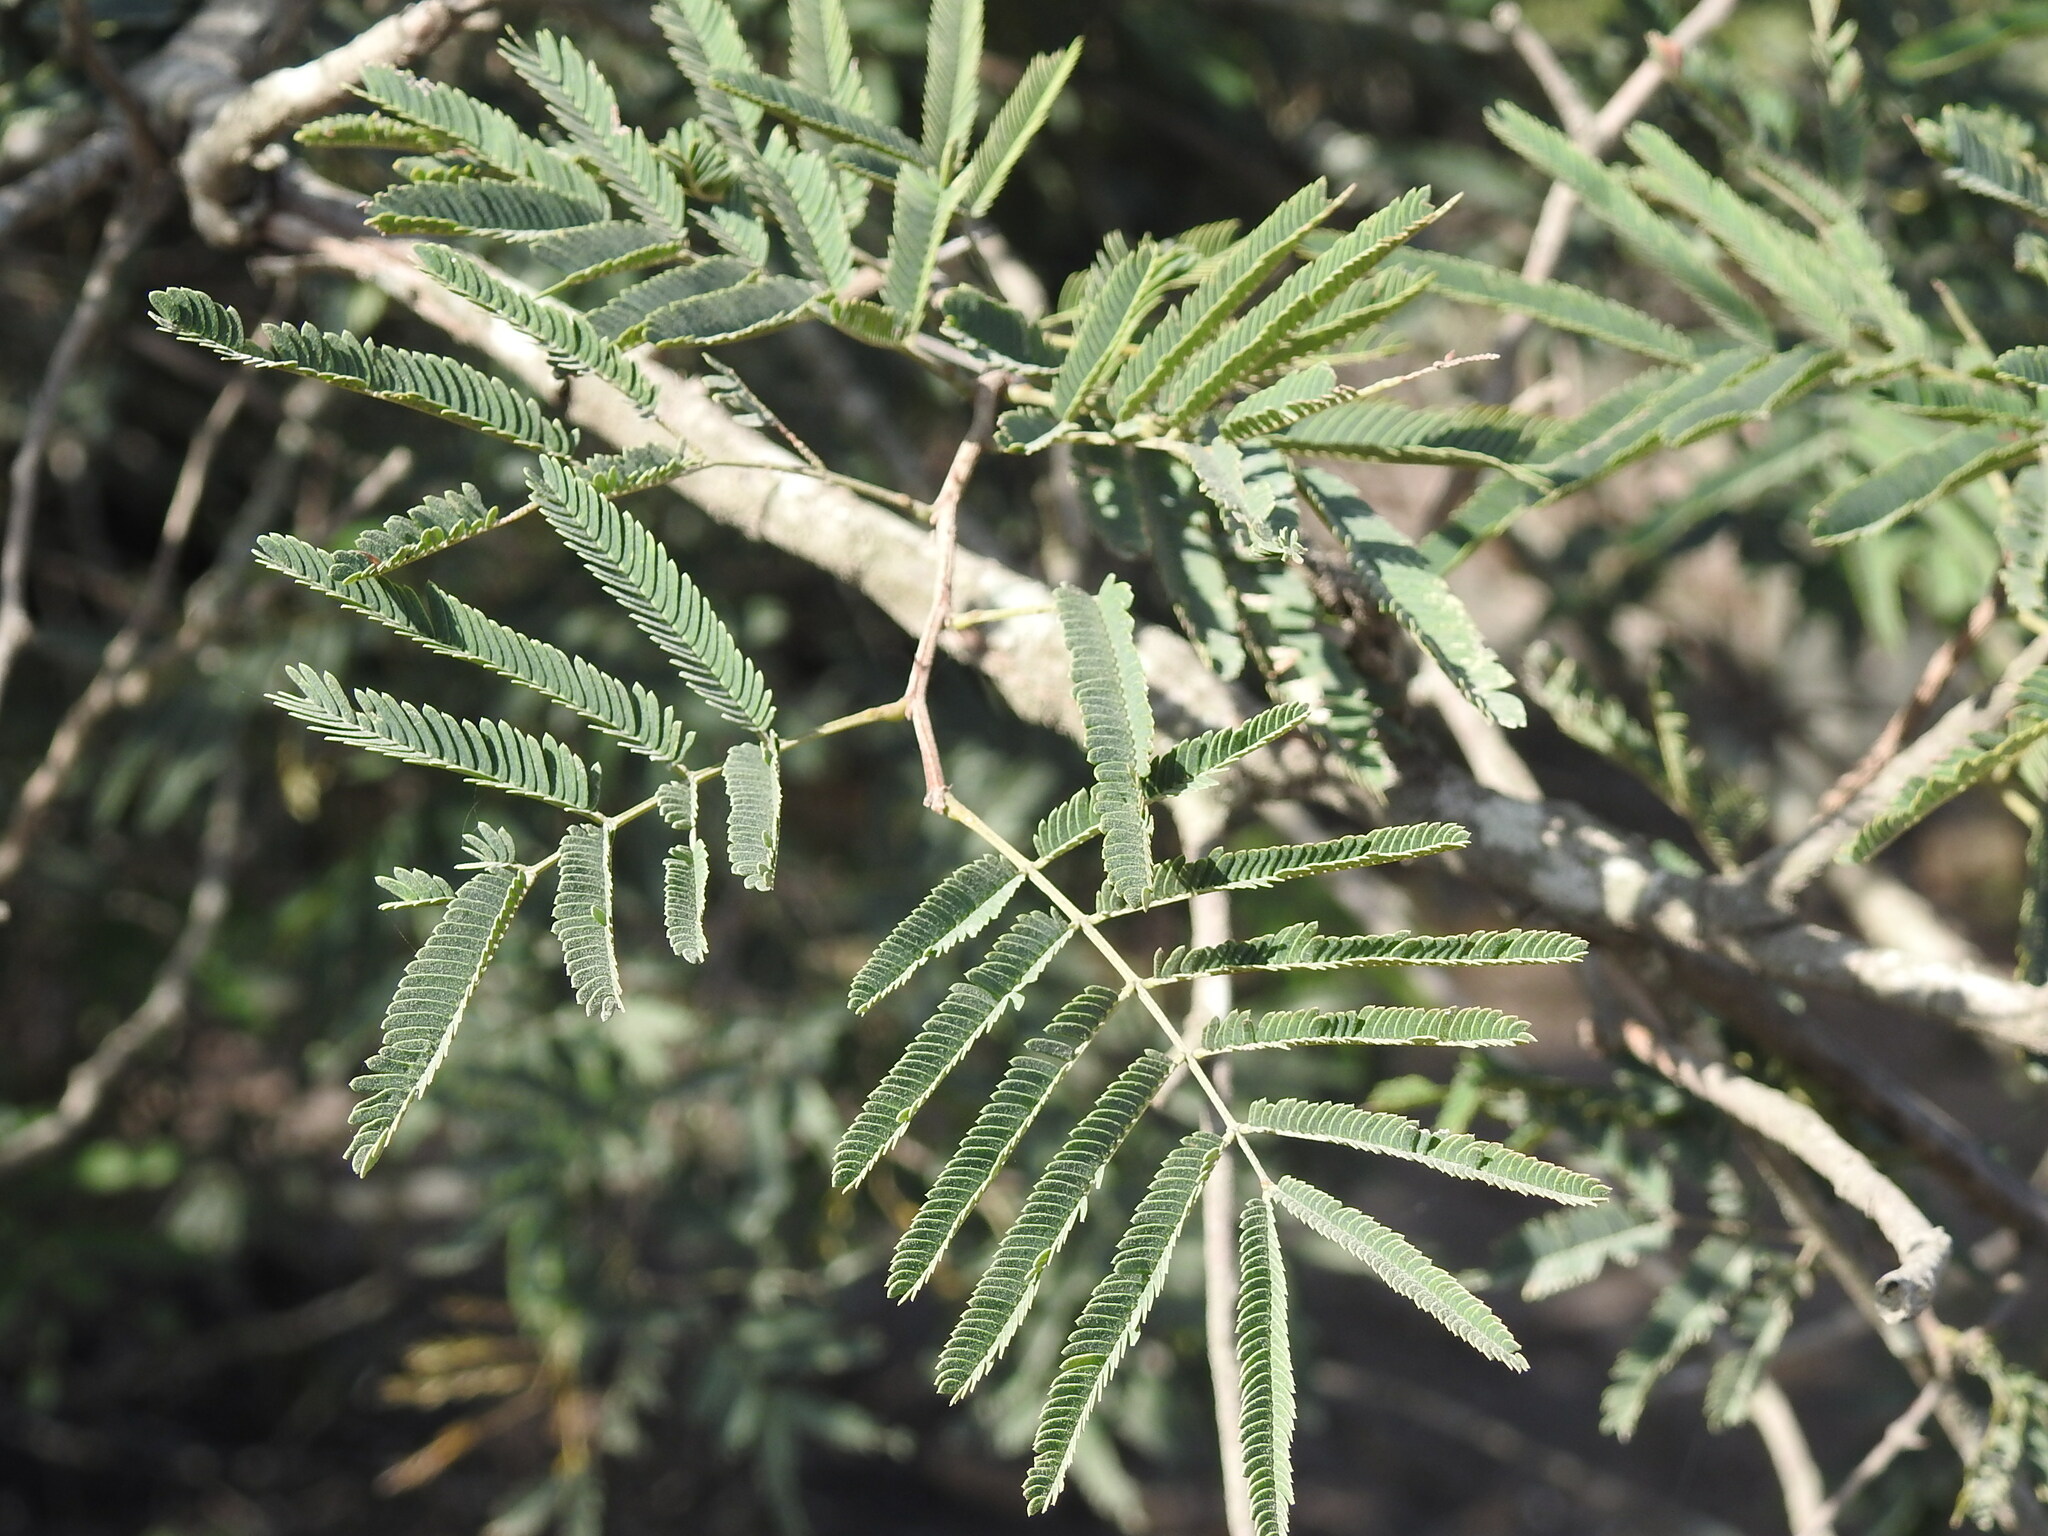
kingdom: Plantae
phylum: Tracheophyta
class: Magnoliopsida
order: Fabales
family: Fabaceae
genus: Senegalia
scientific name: Senegalia praecox
